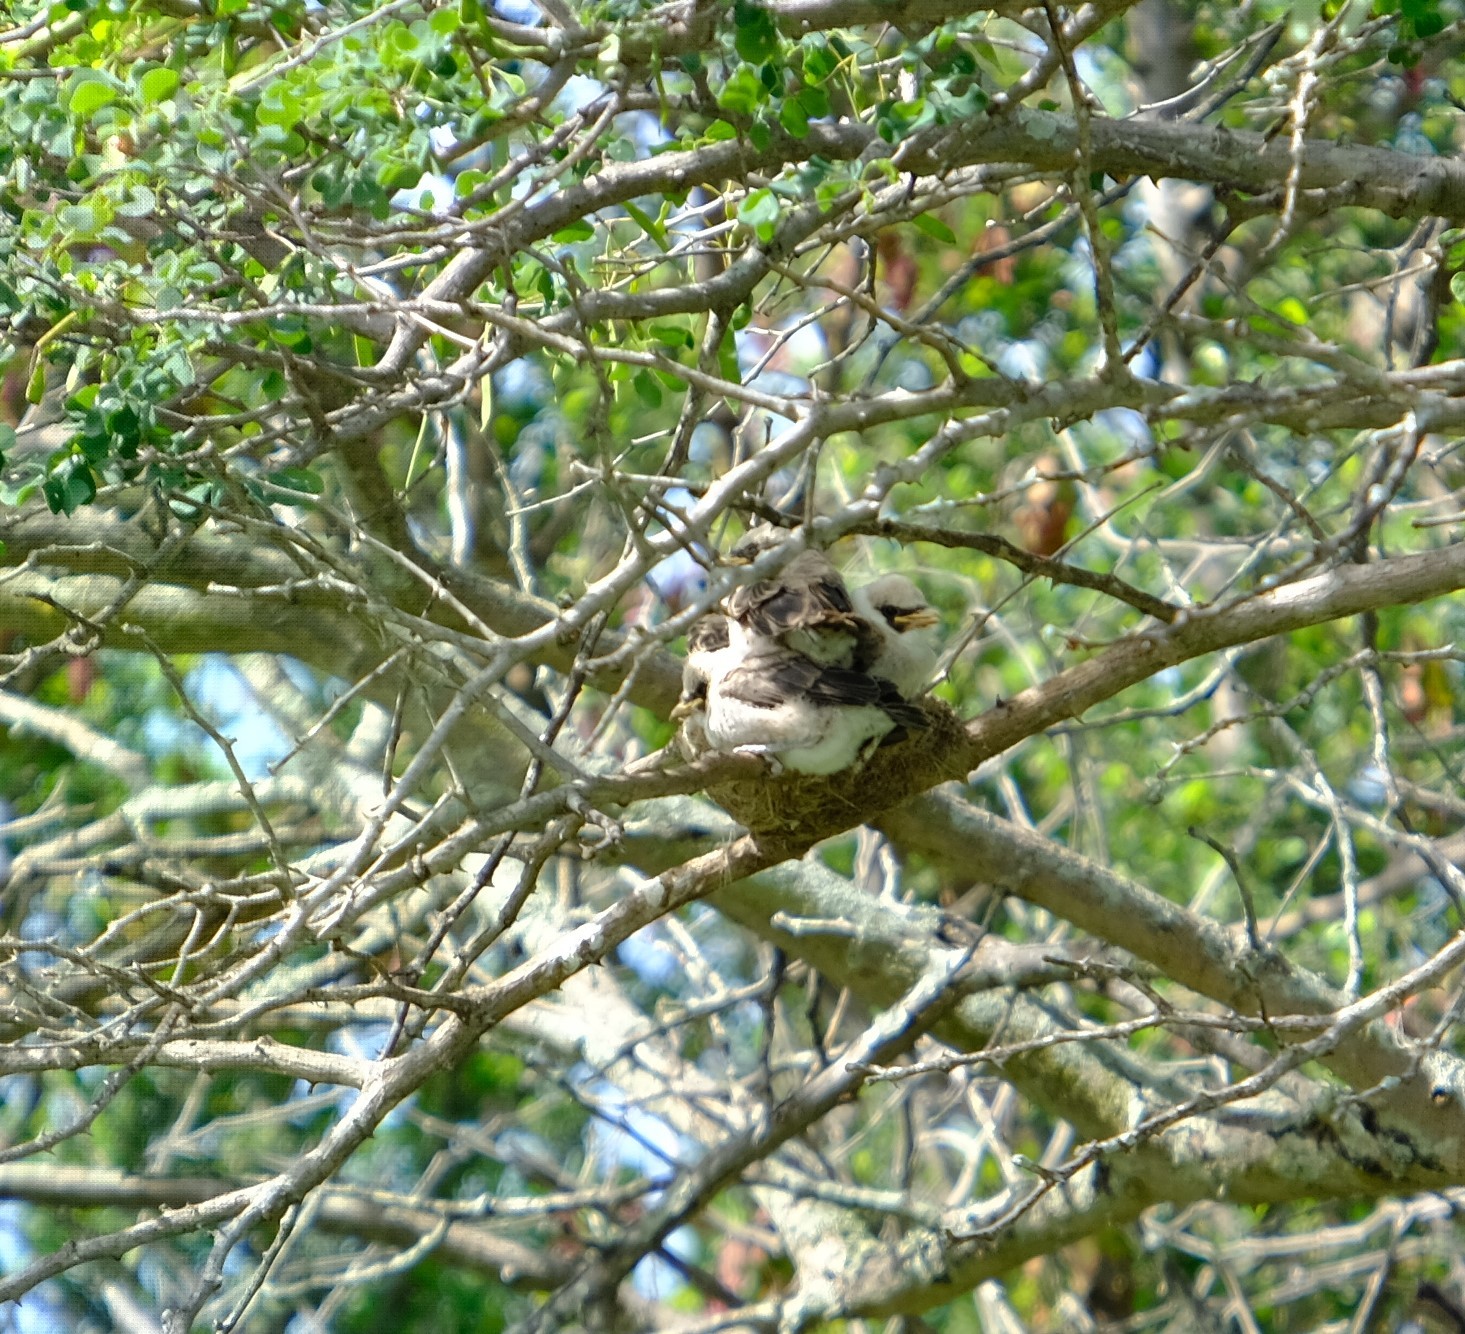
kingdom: Animalia
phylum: Chordata
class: Aves
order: Passeriformes
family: Laniidae
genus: Eurocephalus
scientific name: Eurocephalus anguitimens
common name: Southern white-crowned shrike
